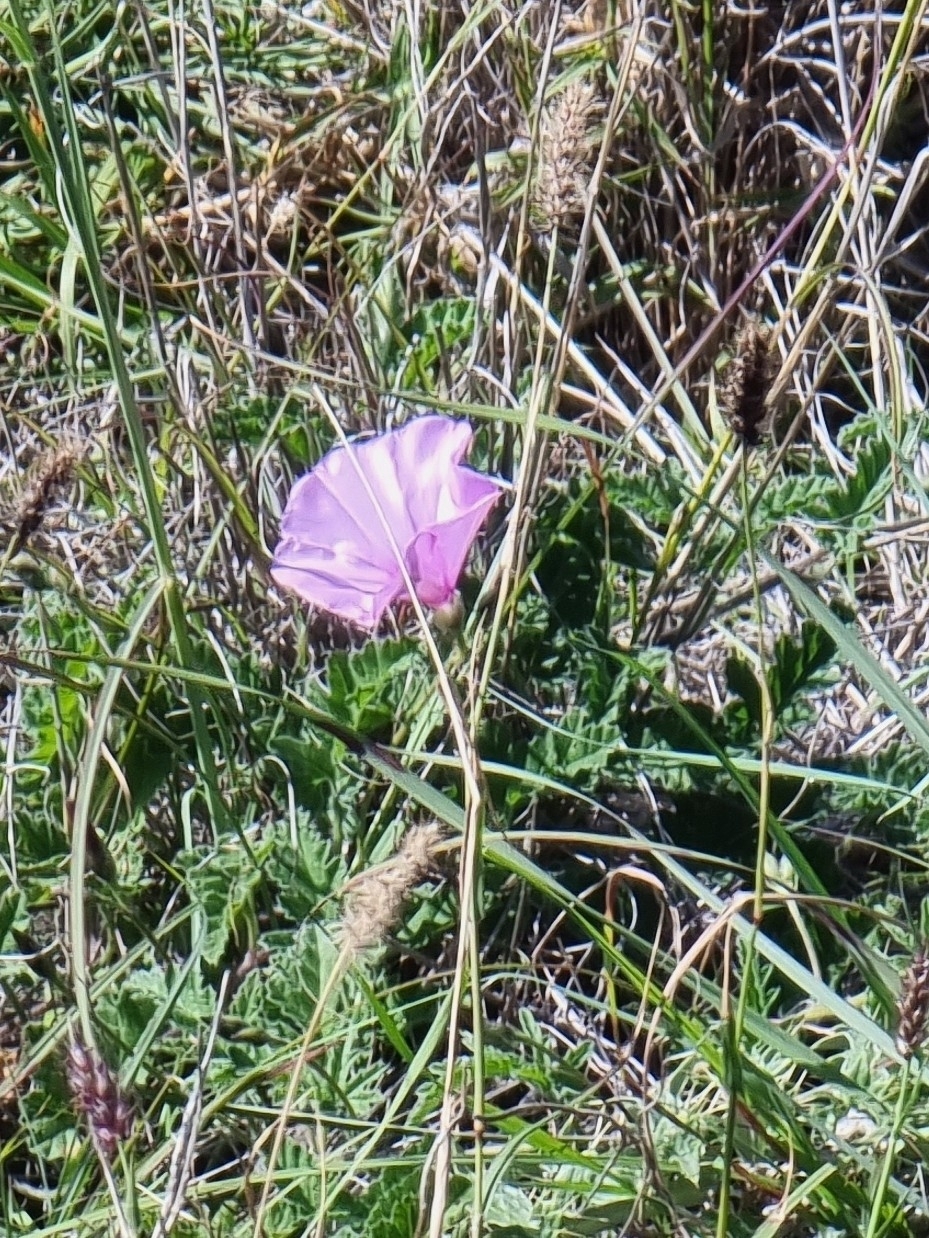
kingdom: Plantae
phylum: Tracheophyta
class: Magnoliopsida
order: Solanales
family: Convolvulaceae
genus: Convolvulus
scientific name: Convolvulus althaeoides
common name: Mallow bindweed
